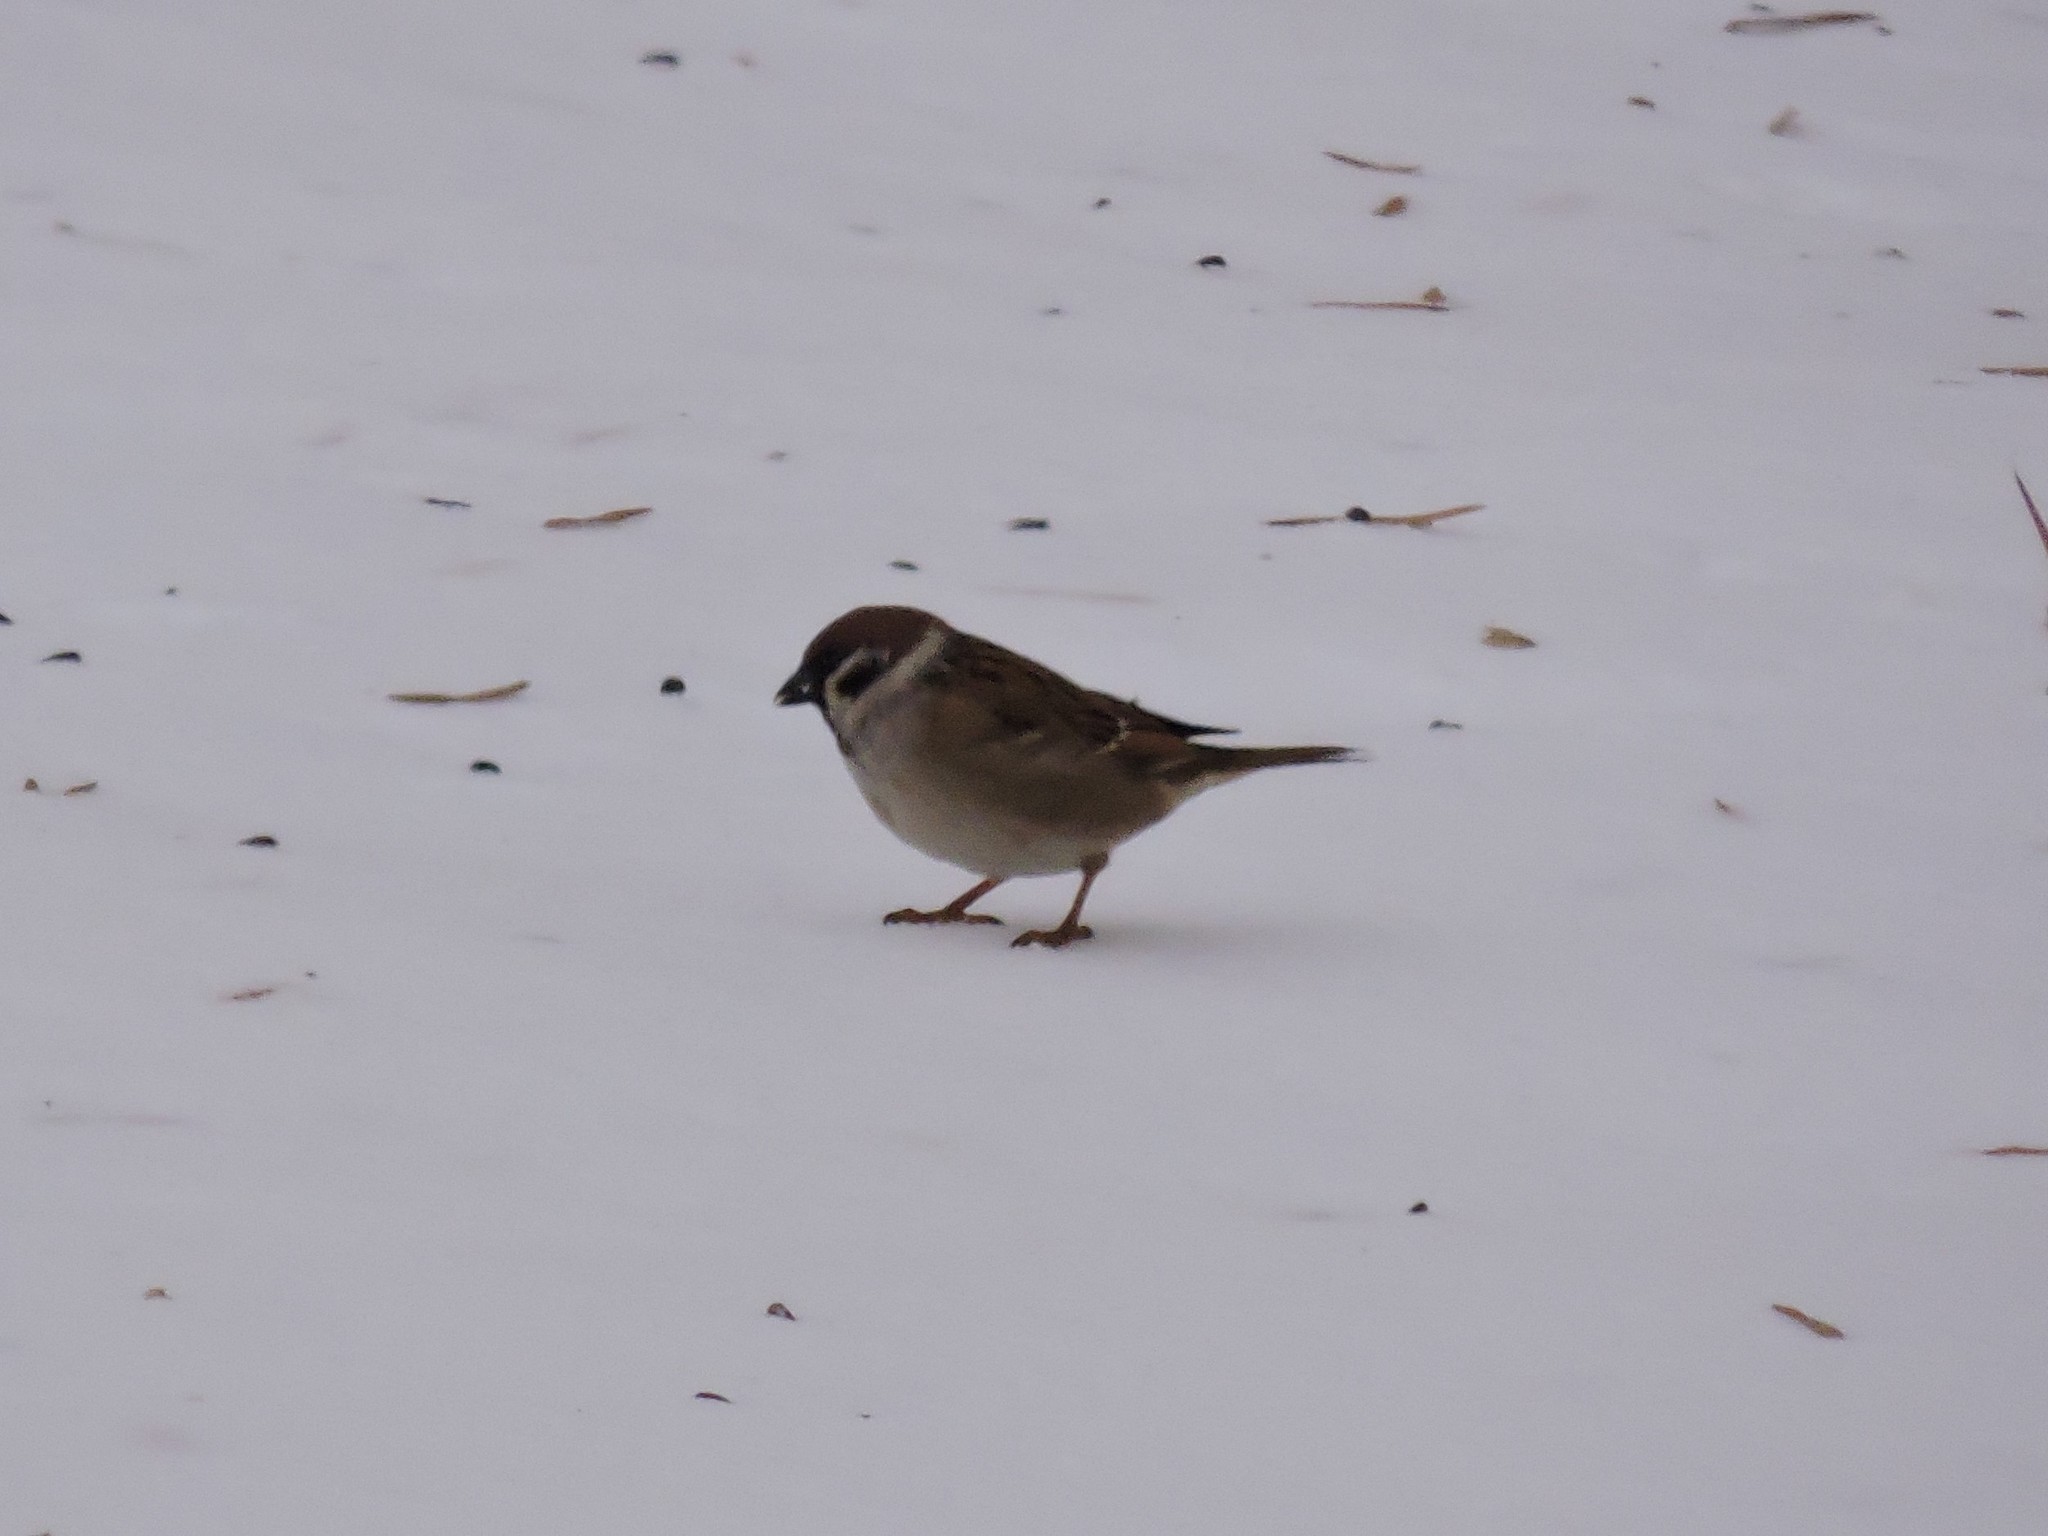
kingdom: Animalia
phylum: Chordata
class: Aves
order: Passeriformes
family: Passeridae
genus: Passer
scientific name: Passer montanus
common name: Eurasian tree sparrow
